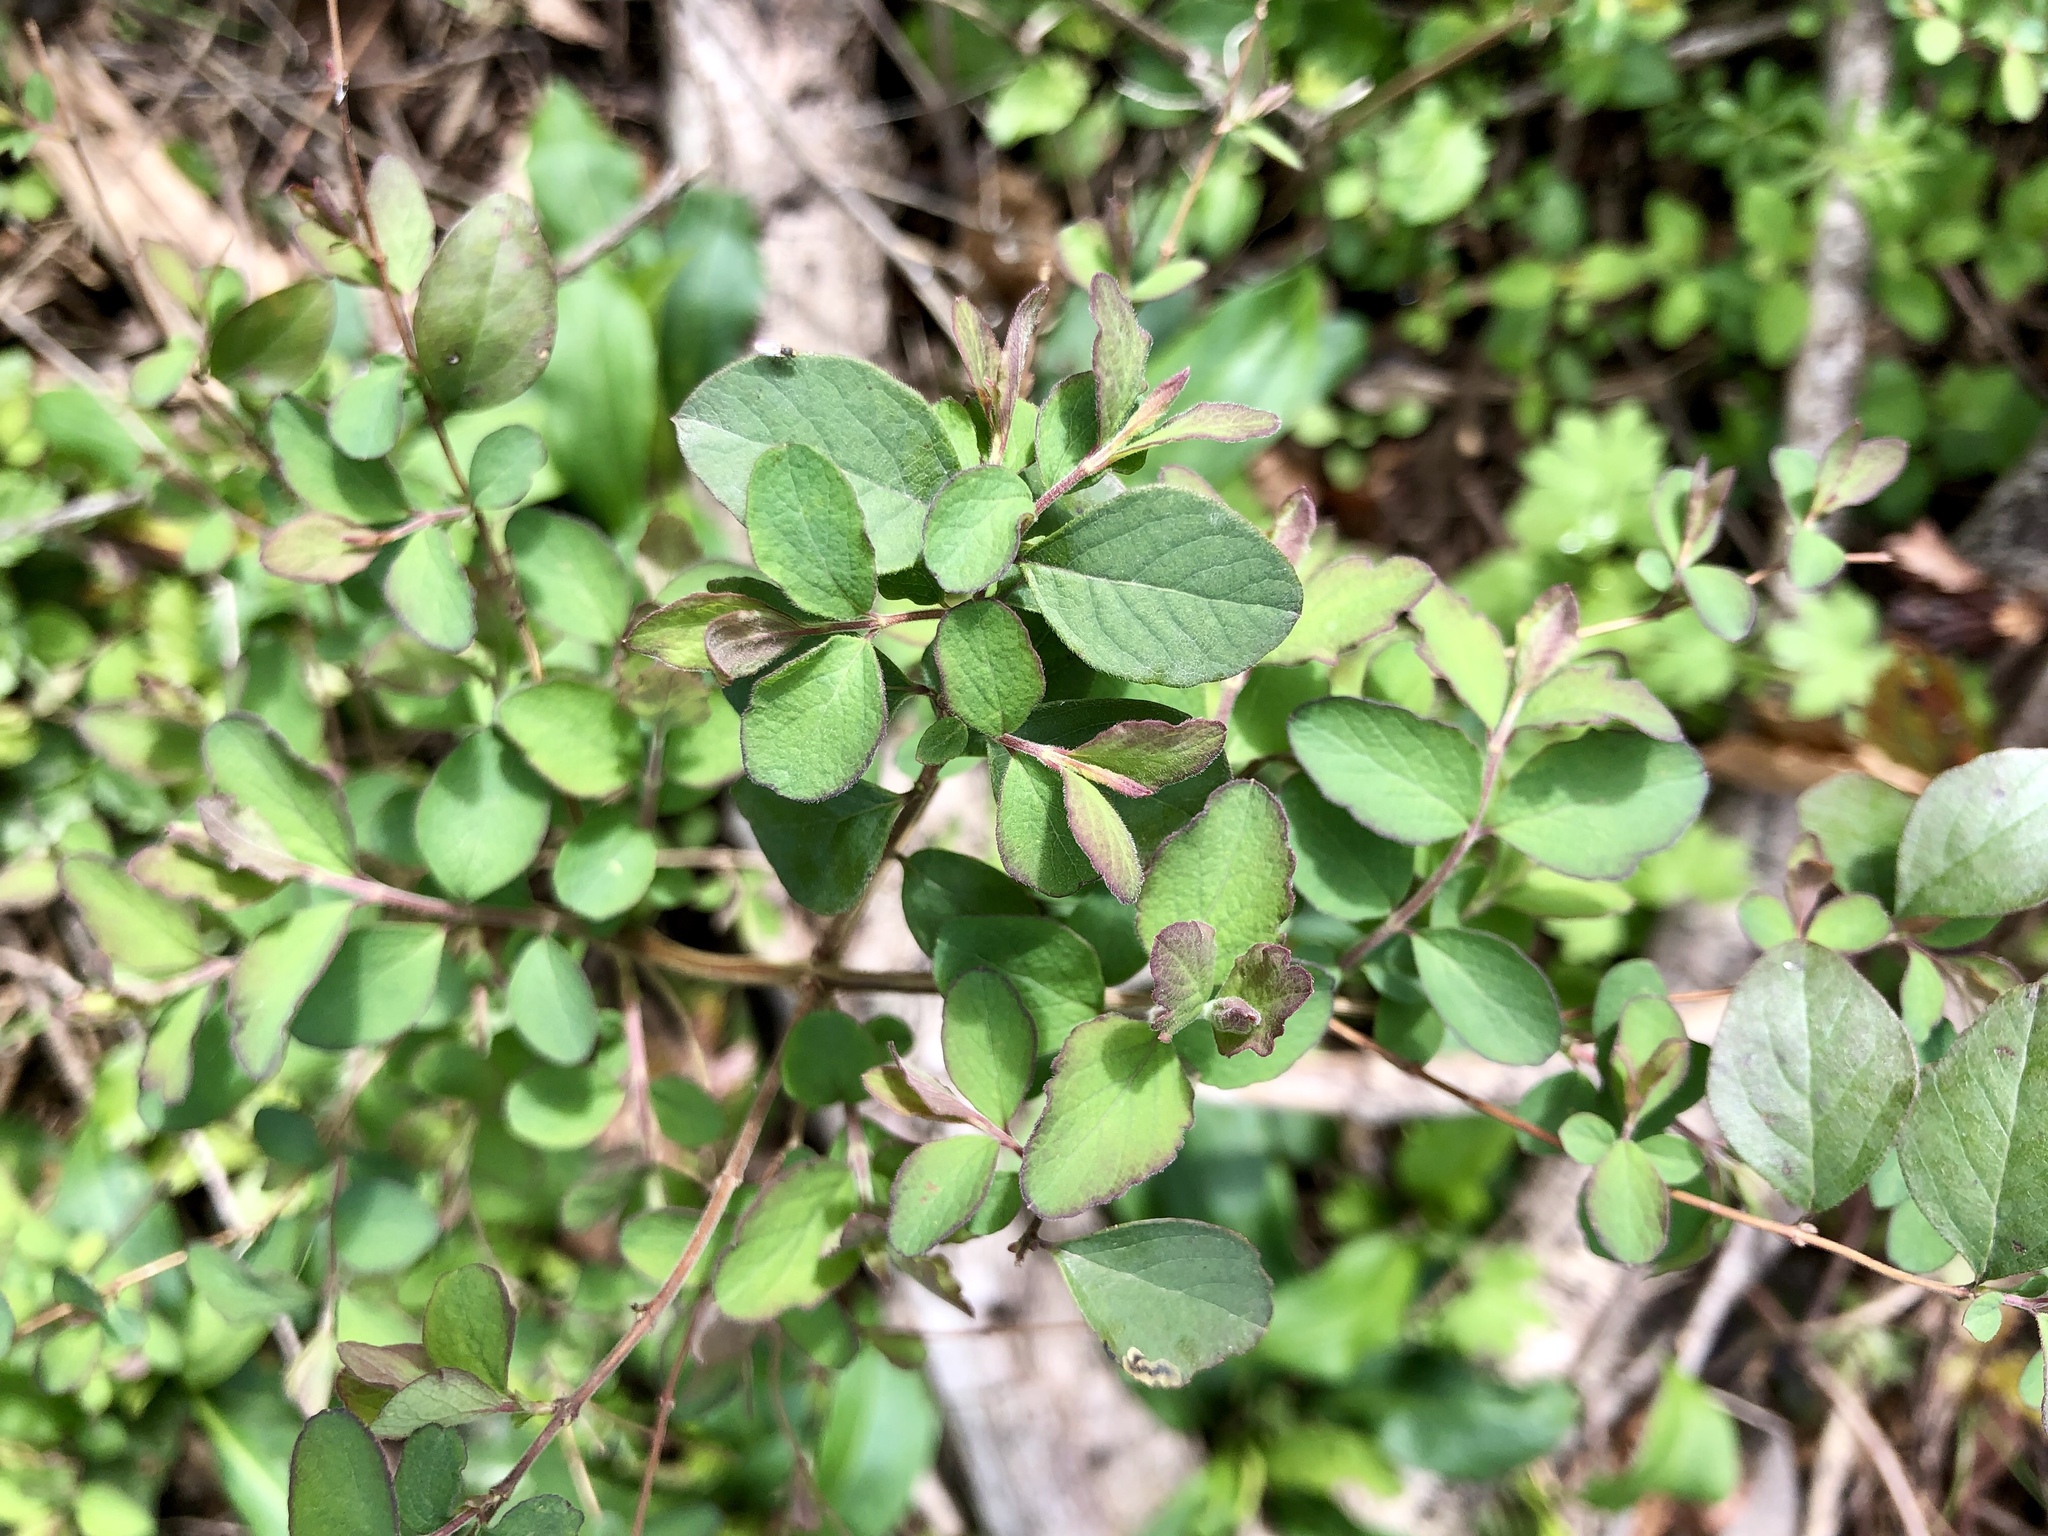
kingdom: Plantae
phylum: Tracheophyta
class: Magnoliopsida
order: Dipsacales
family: Caprifoliaceae
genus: Symphoricarpos
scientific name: Symphoricarpos orbiculatus
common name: Coralberry
